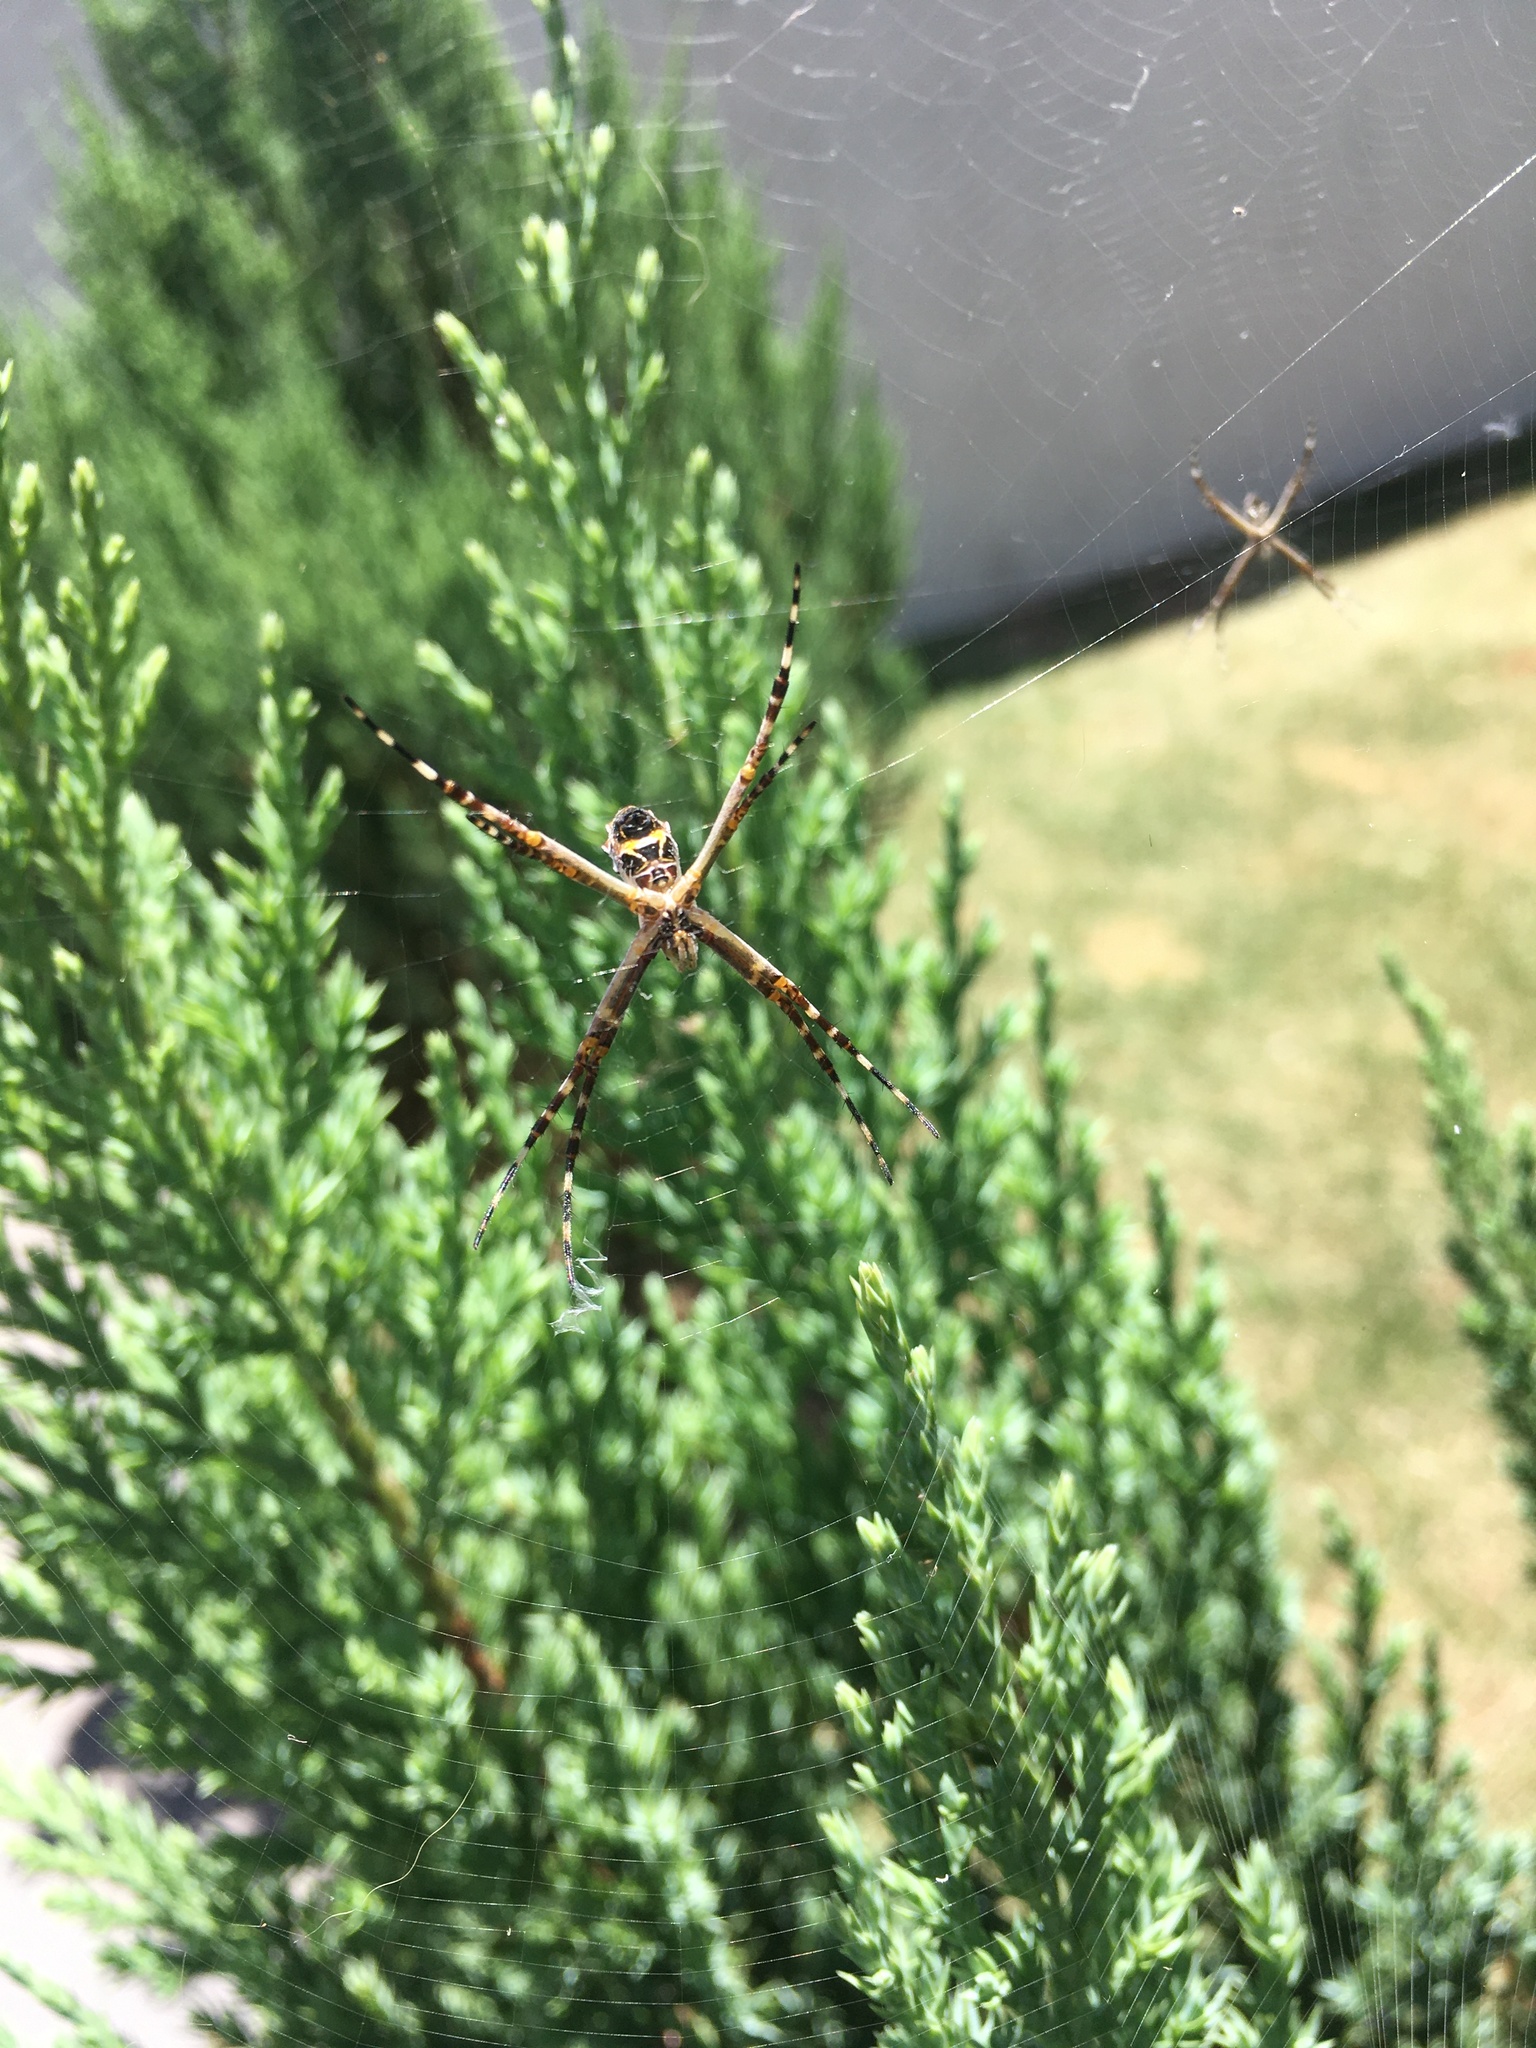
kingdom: Animalia
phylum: Arthropoda
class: Arachnida
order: Araneae
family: Araneidae
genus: Argiope
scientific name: Argiope argentata
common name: Orb weavers
